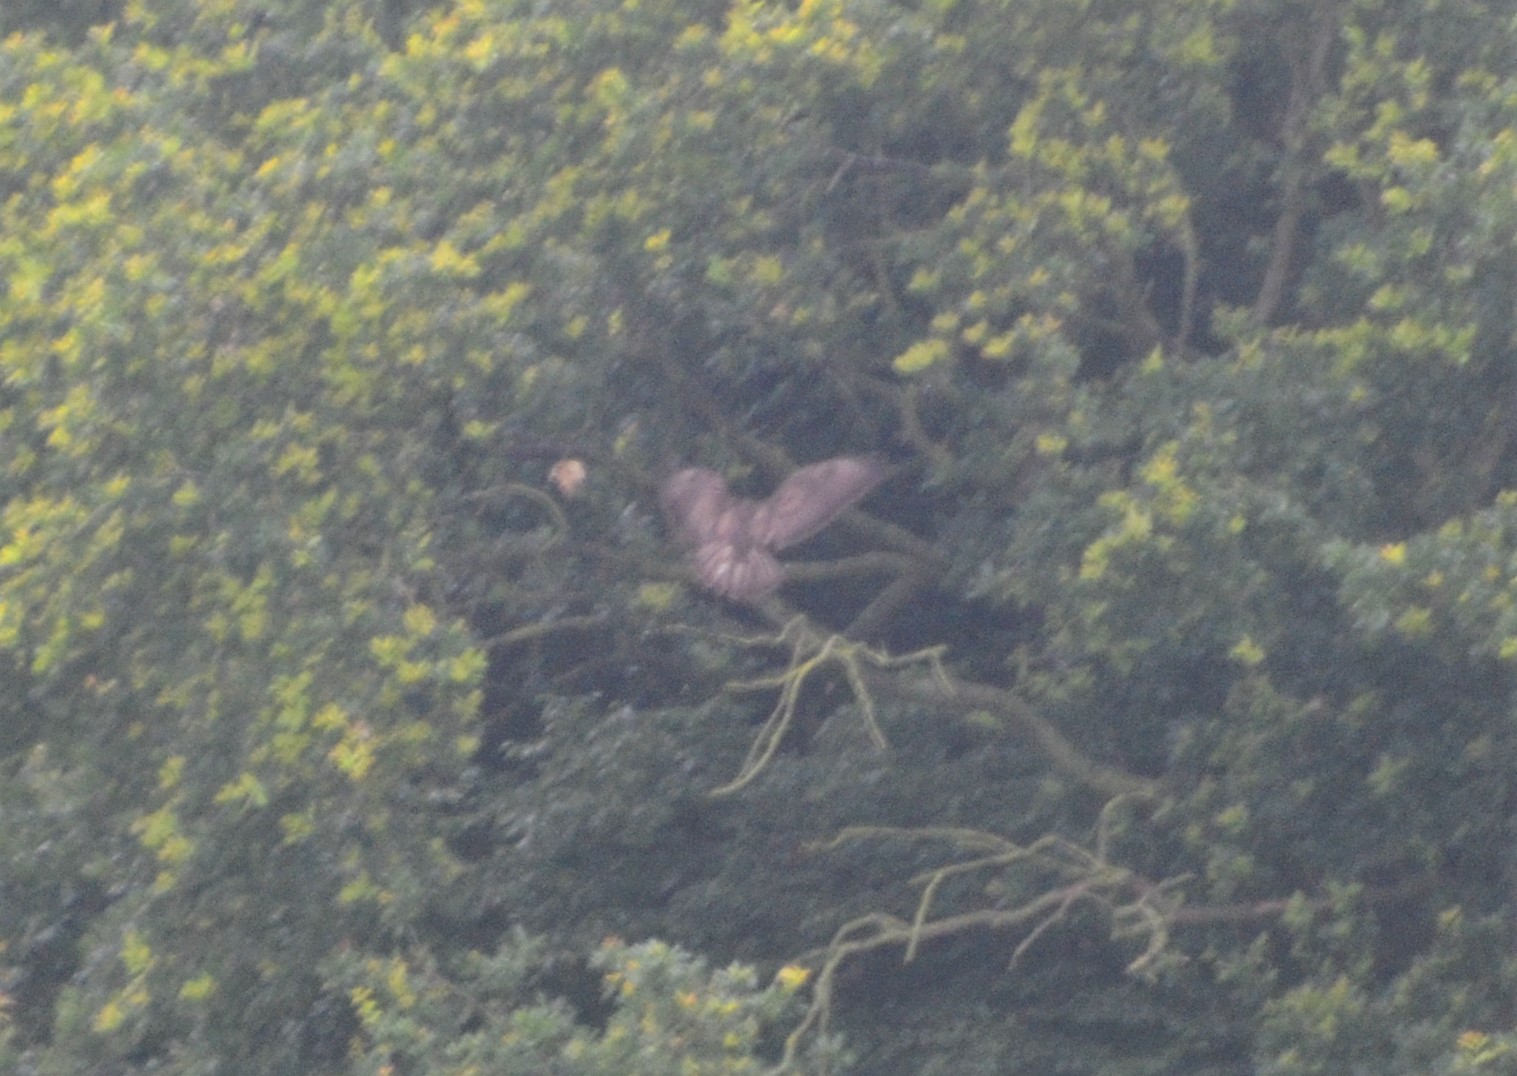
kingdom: Animalia
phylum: Chordata
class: Aves
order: Accipitriformes
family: Accipitridae
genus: Buteo
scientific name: Buteo buteo
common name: Common buzzard
